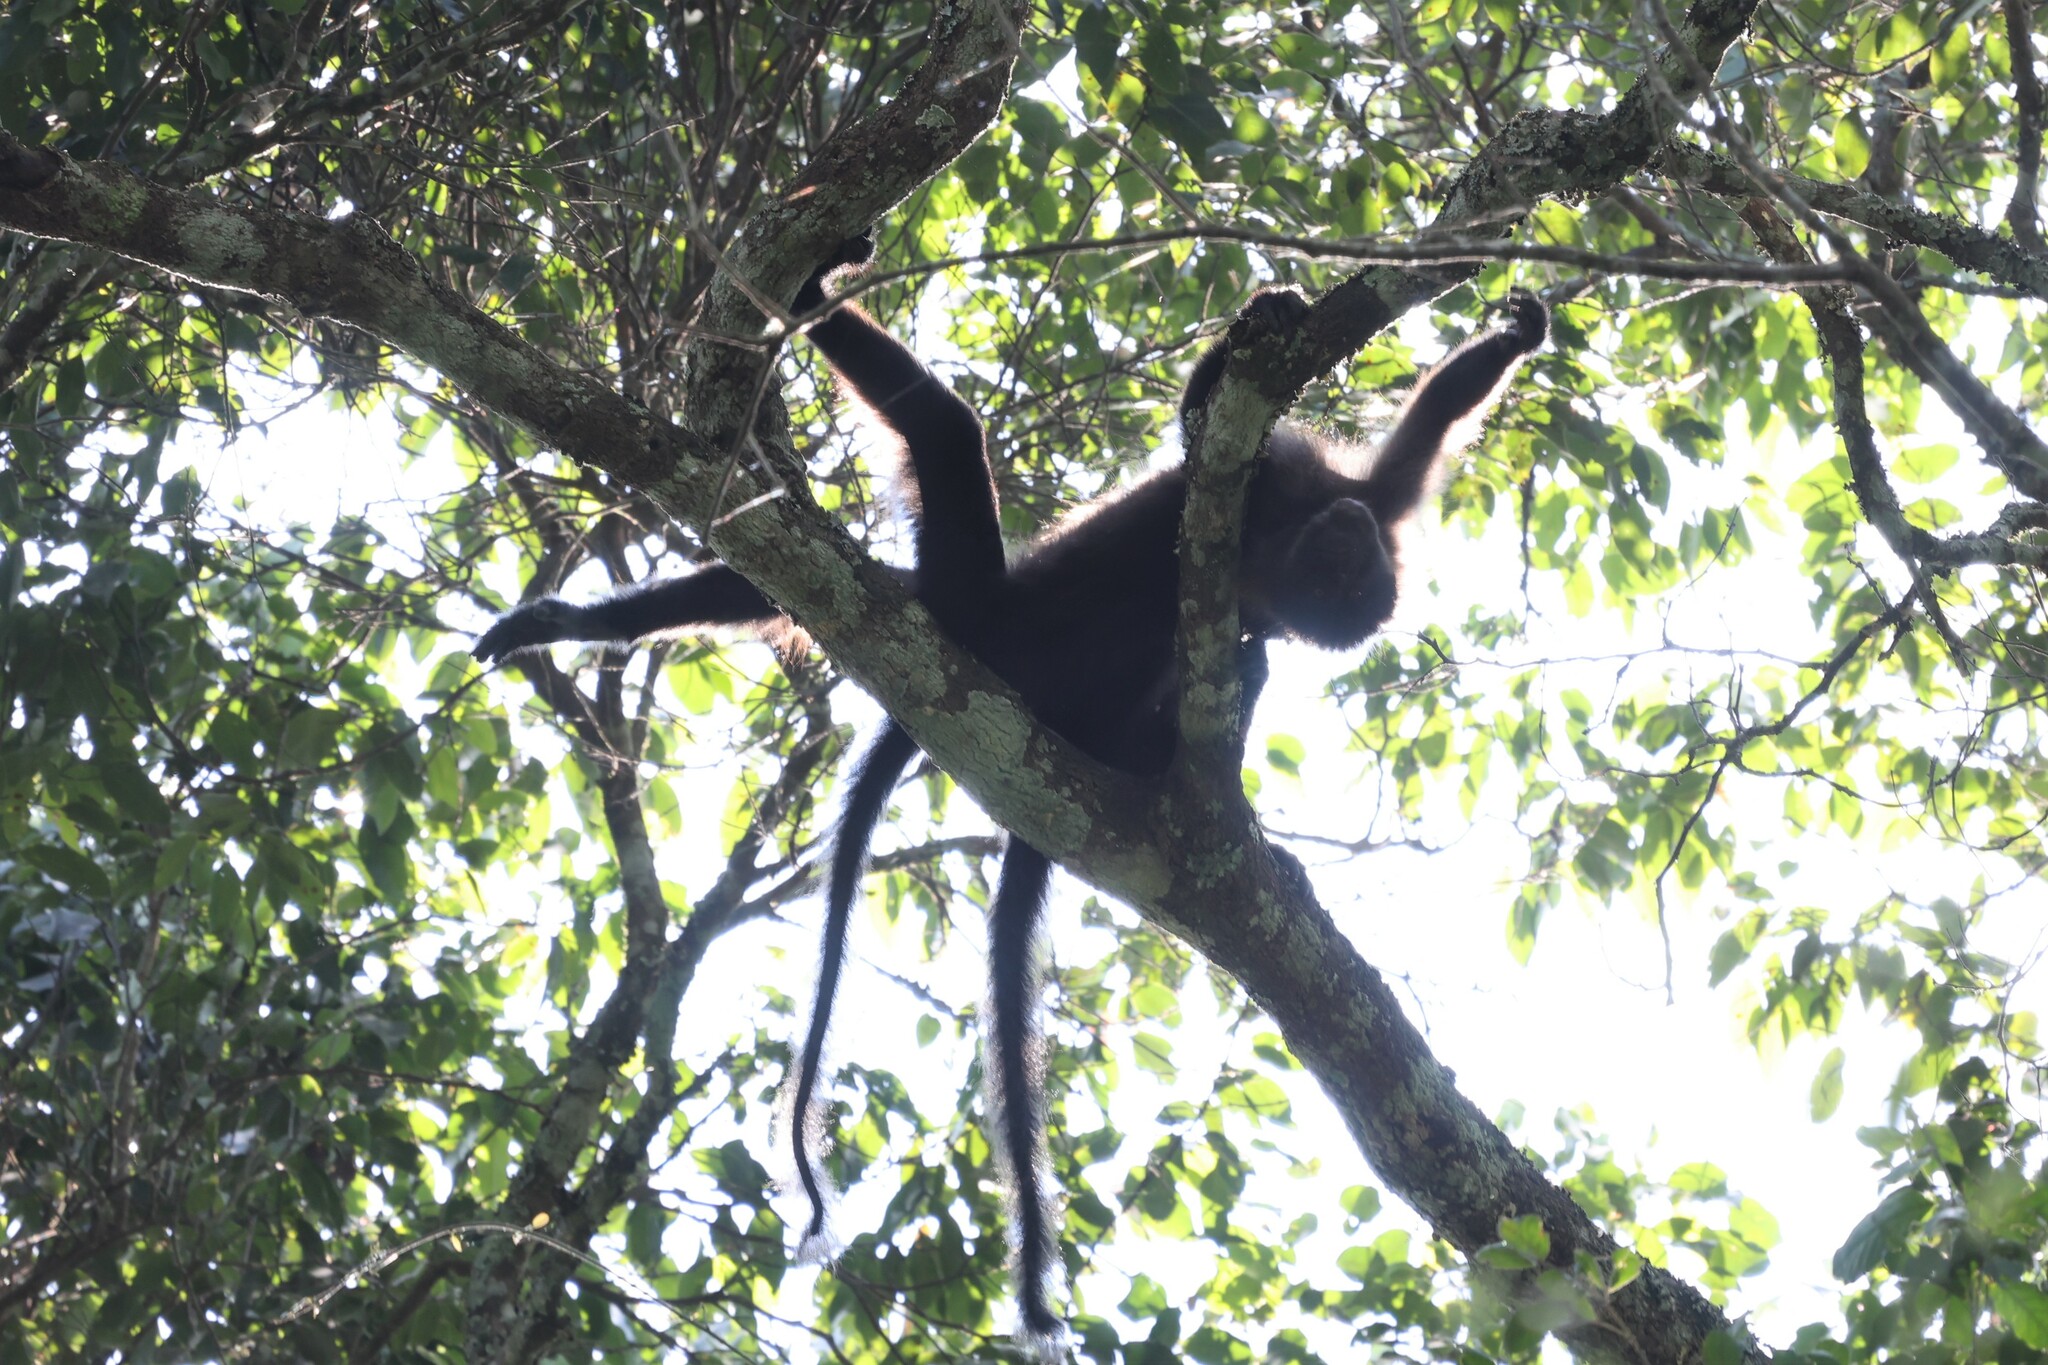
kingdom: Animalia
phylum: Chordata
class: Mammalia
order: Primates
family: Cercopithecidae
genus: Lophocebus
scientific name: Lophocebus albigena
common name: Gray-cheeked mangabey
